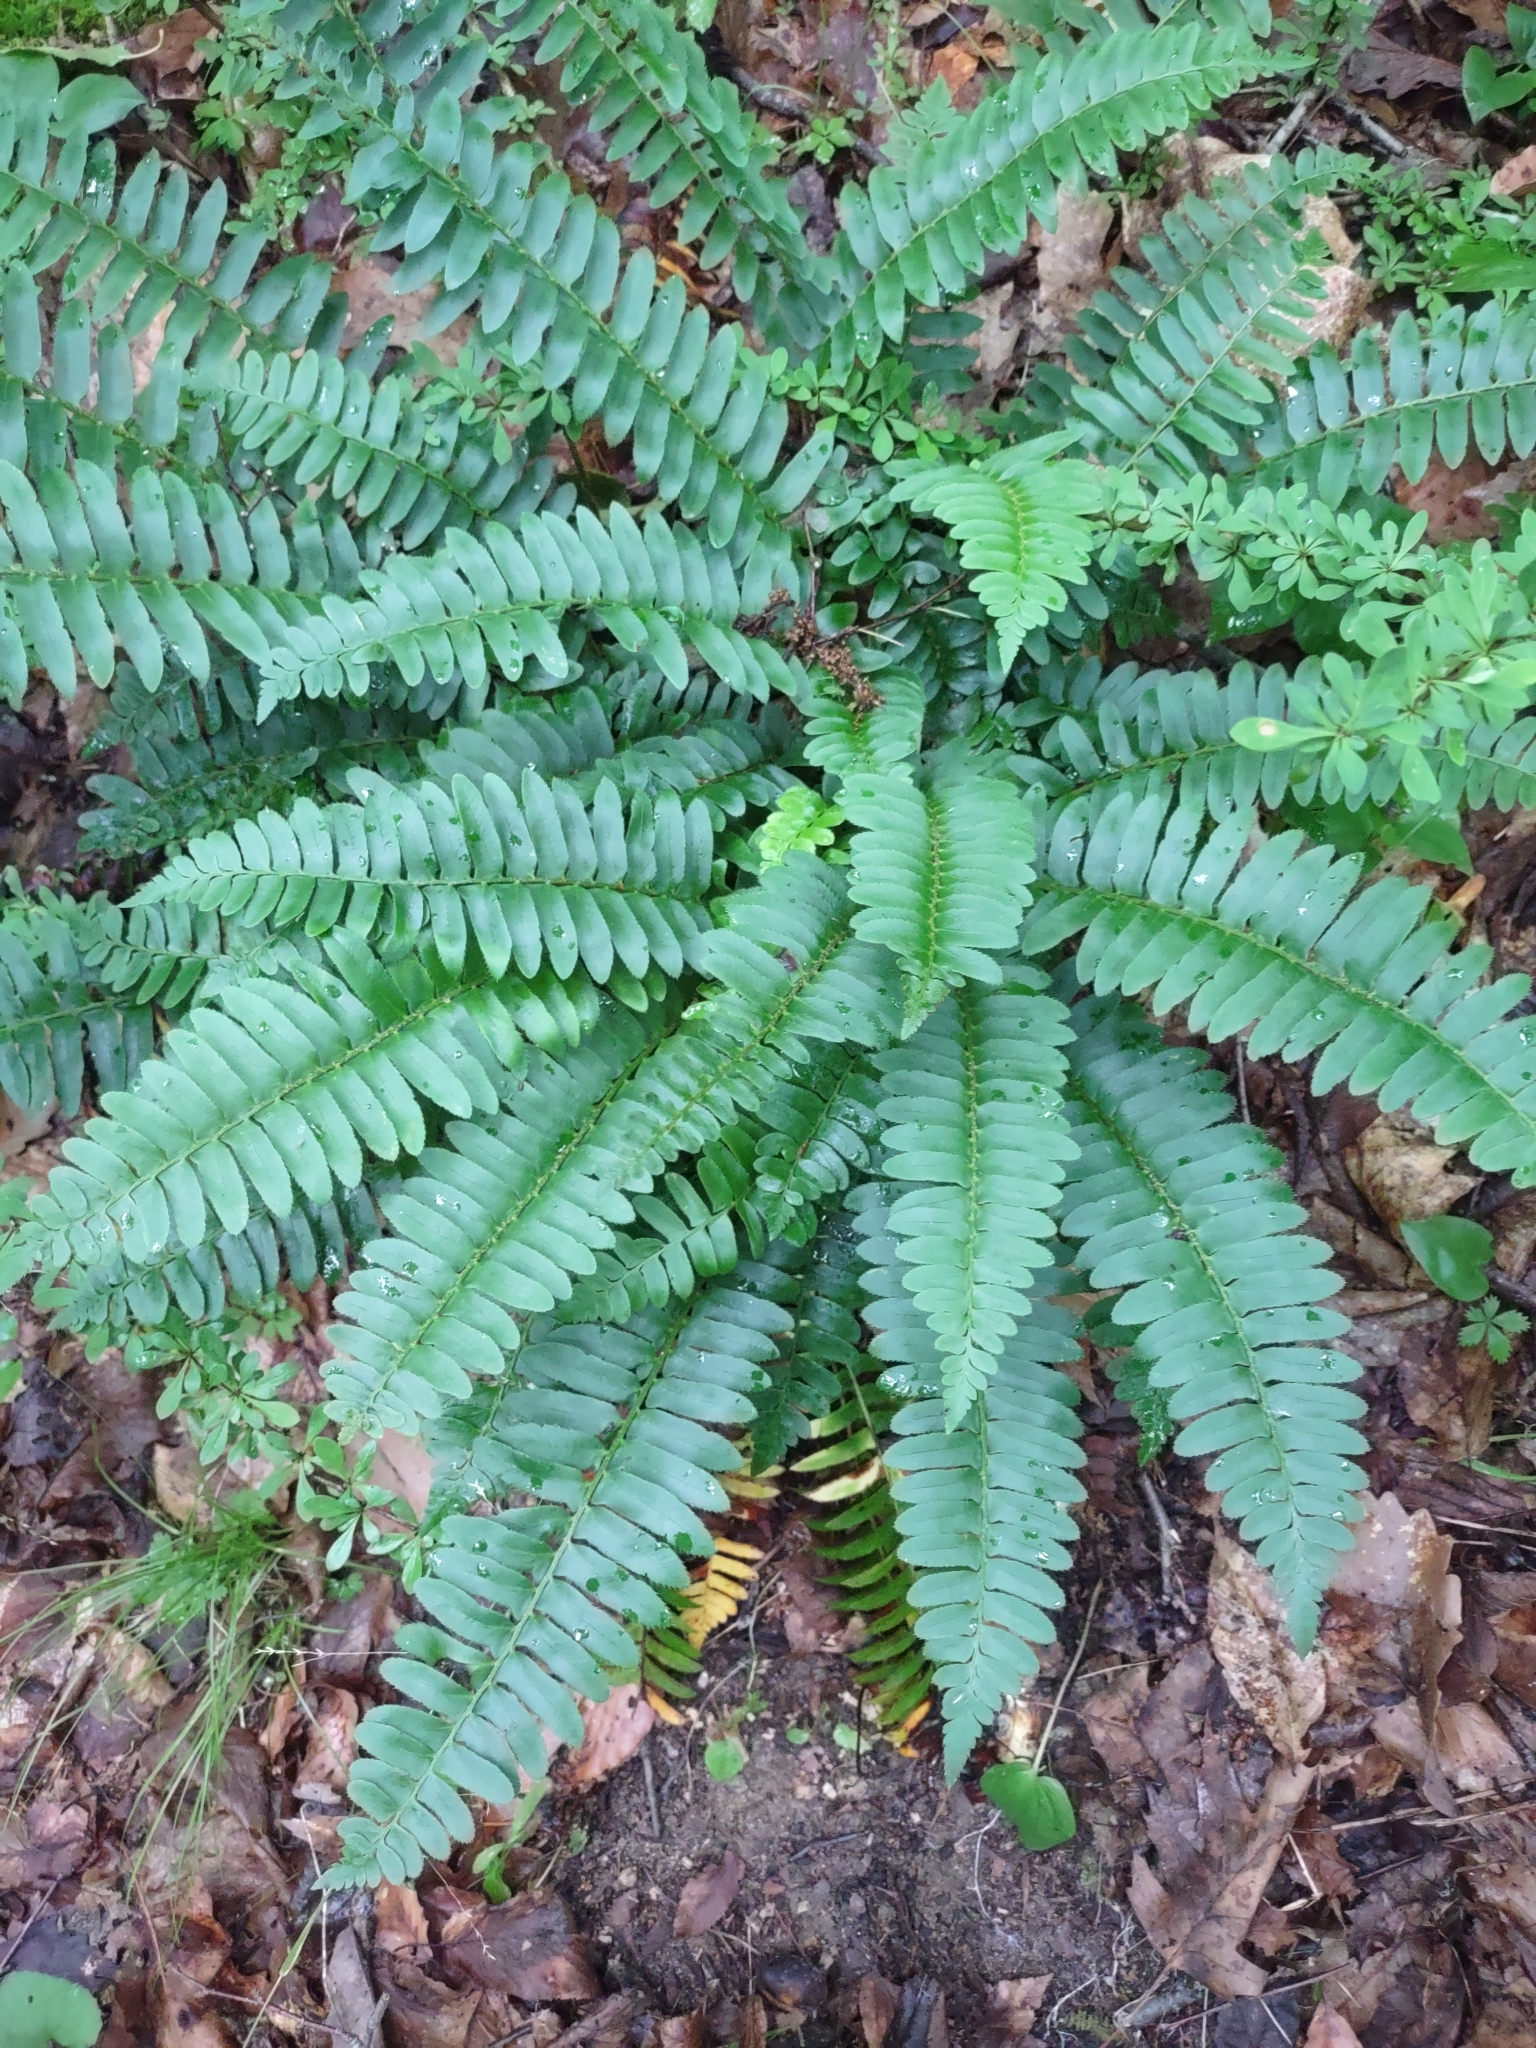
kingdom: Plantae
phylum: Tracheophyta
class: Polypodiopsida
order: Polypodiales
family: Dryopteridaceae
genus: Polystichum
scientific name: Polystichum acrostichoides
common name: Christmas fern
